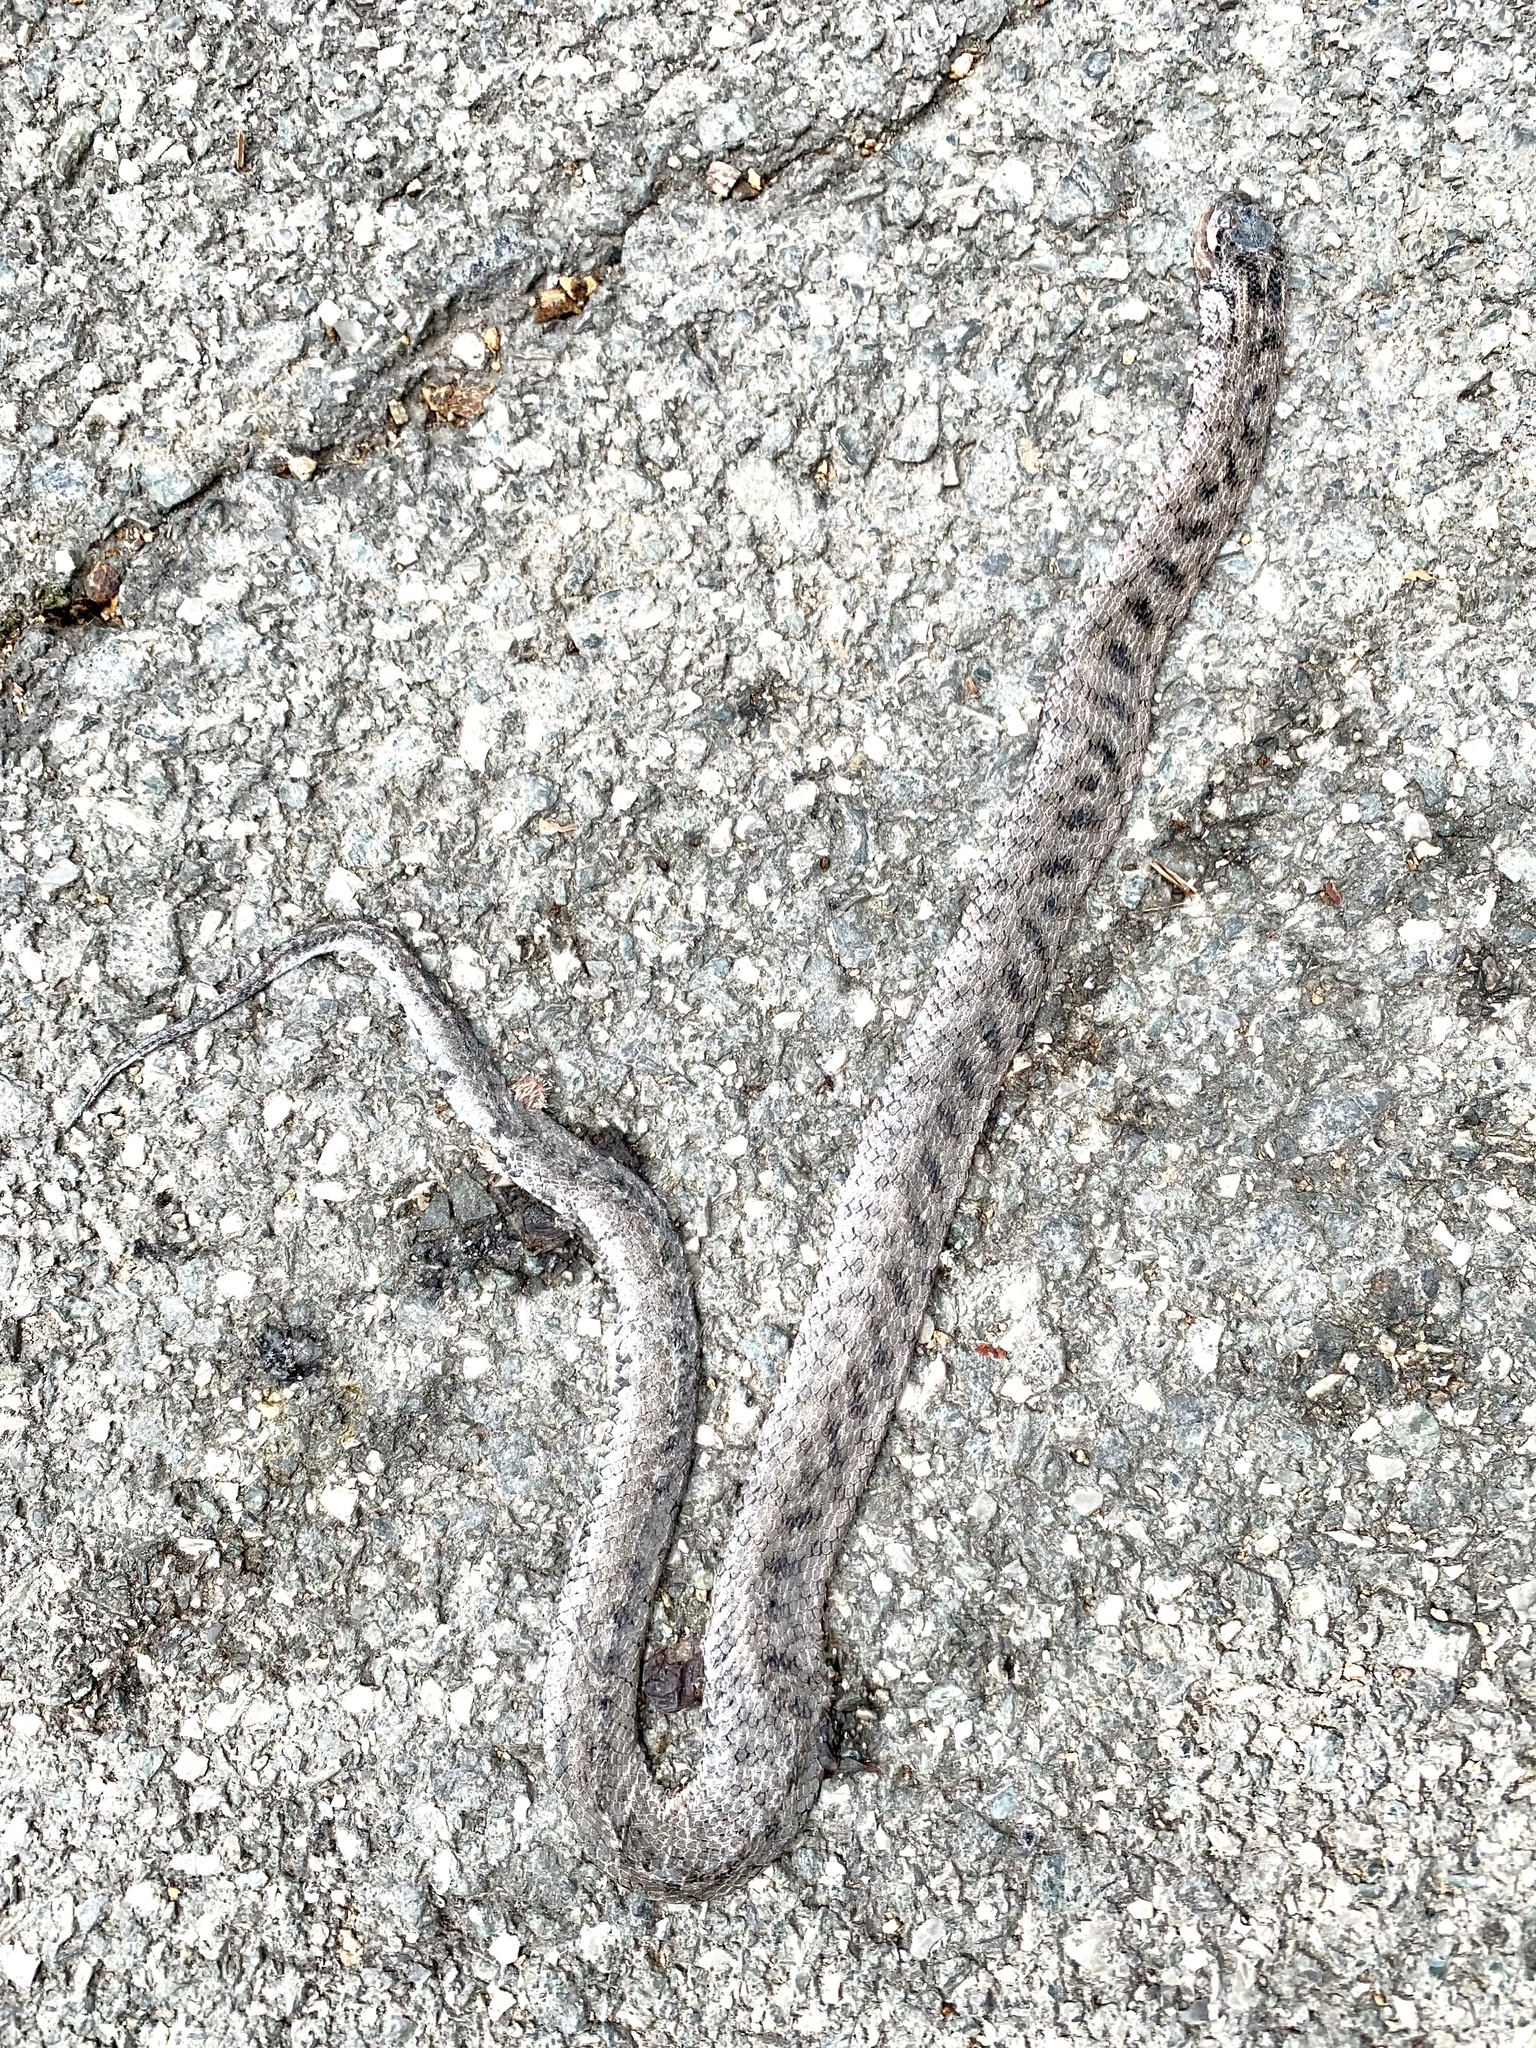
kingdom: Animalia
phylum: Chordata
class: Squamata
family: Colubridae
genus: Coronella
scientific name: Coronella girondica
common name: Southern smooth snake
